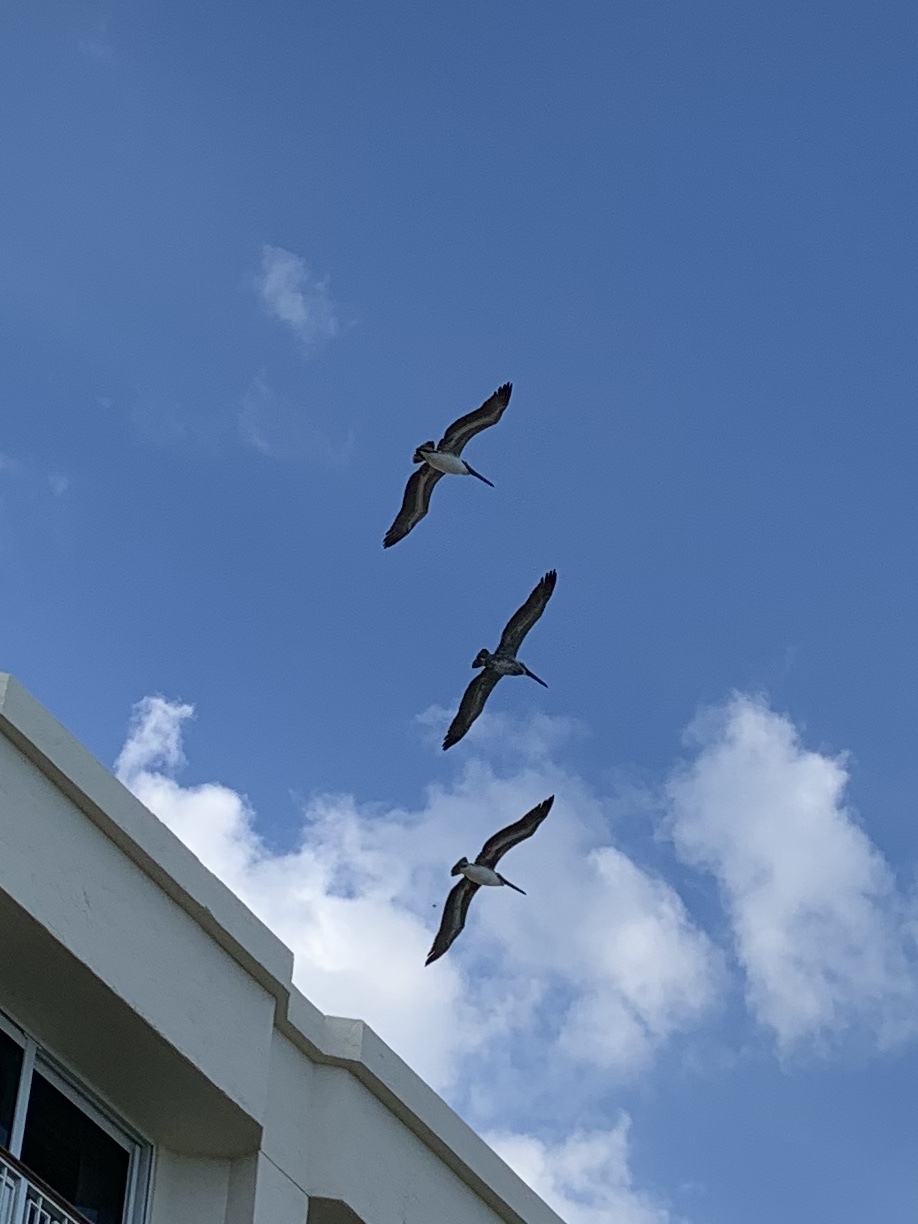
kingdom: Animalia
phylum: Chordata
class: Aves
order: Pelecaniformes
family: Pelecanidae
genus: Pelecanus
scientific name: Pelecanus occidentalis
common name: Brown pelican
